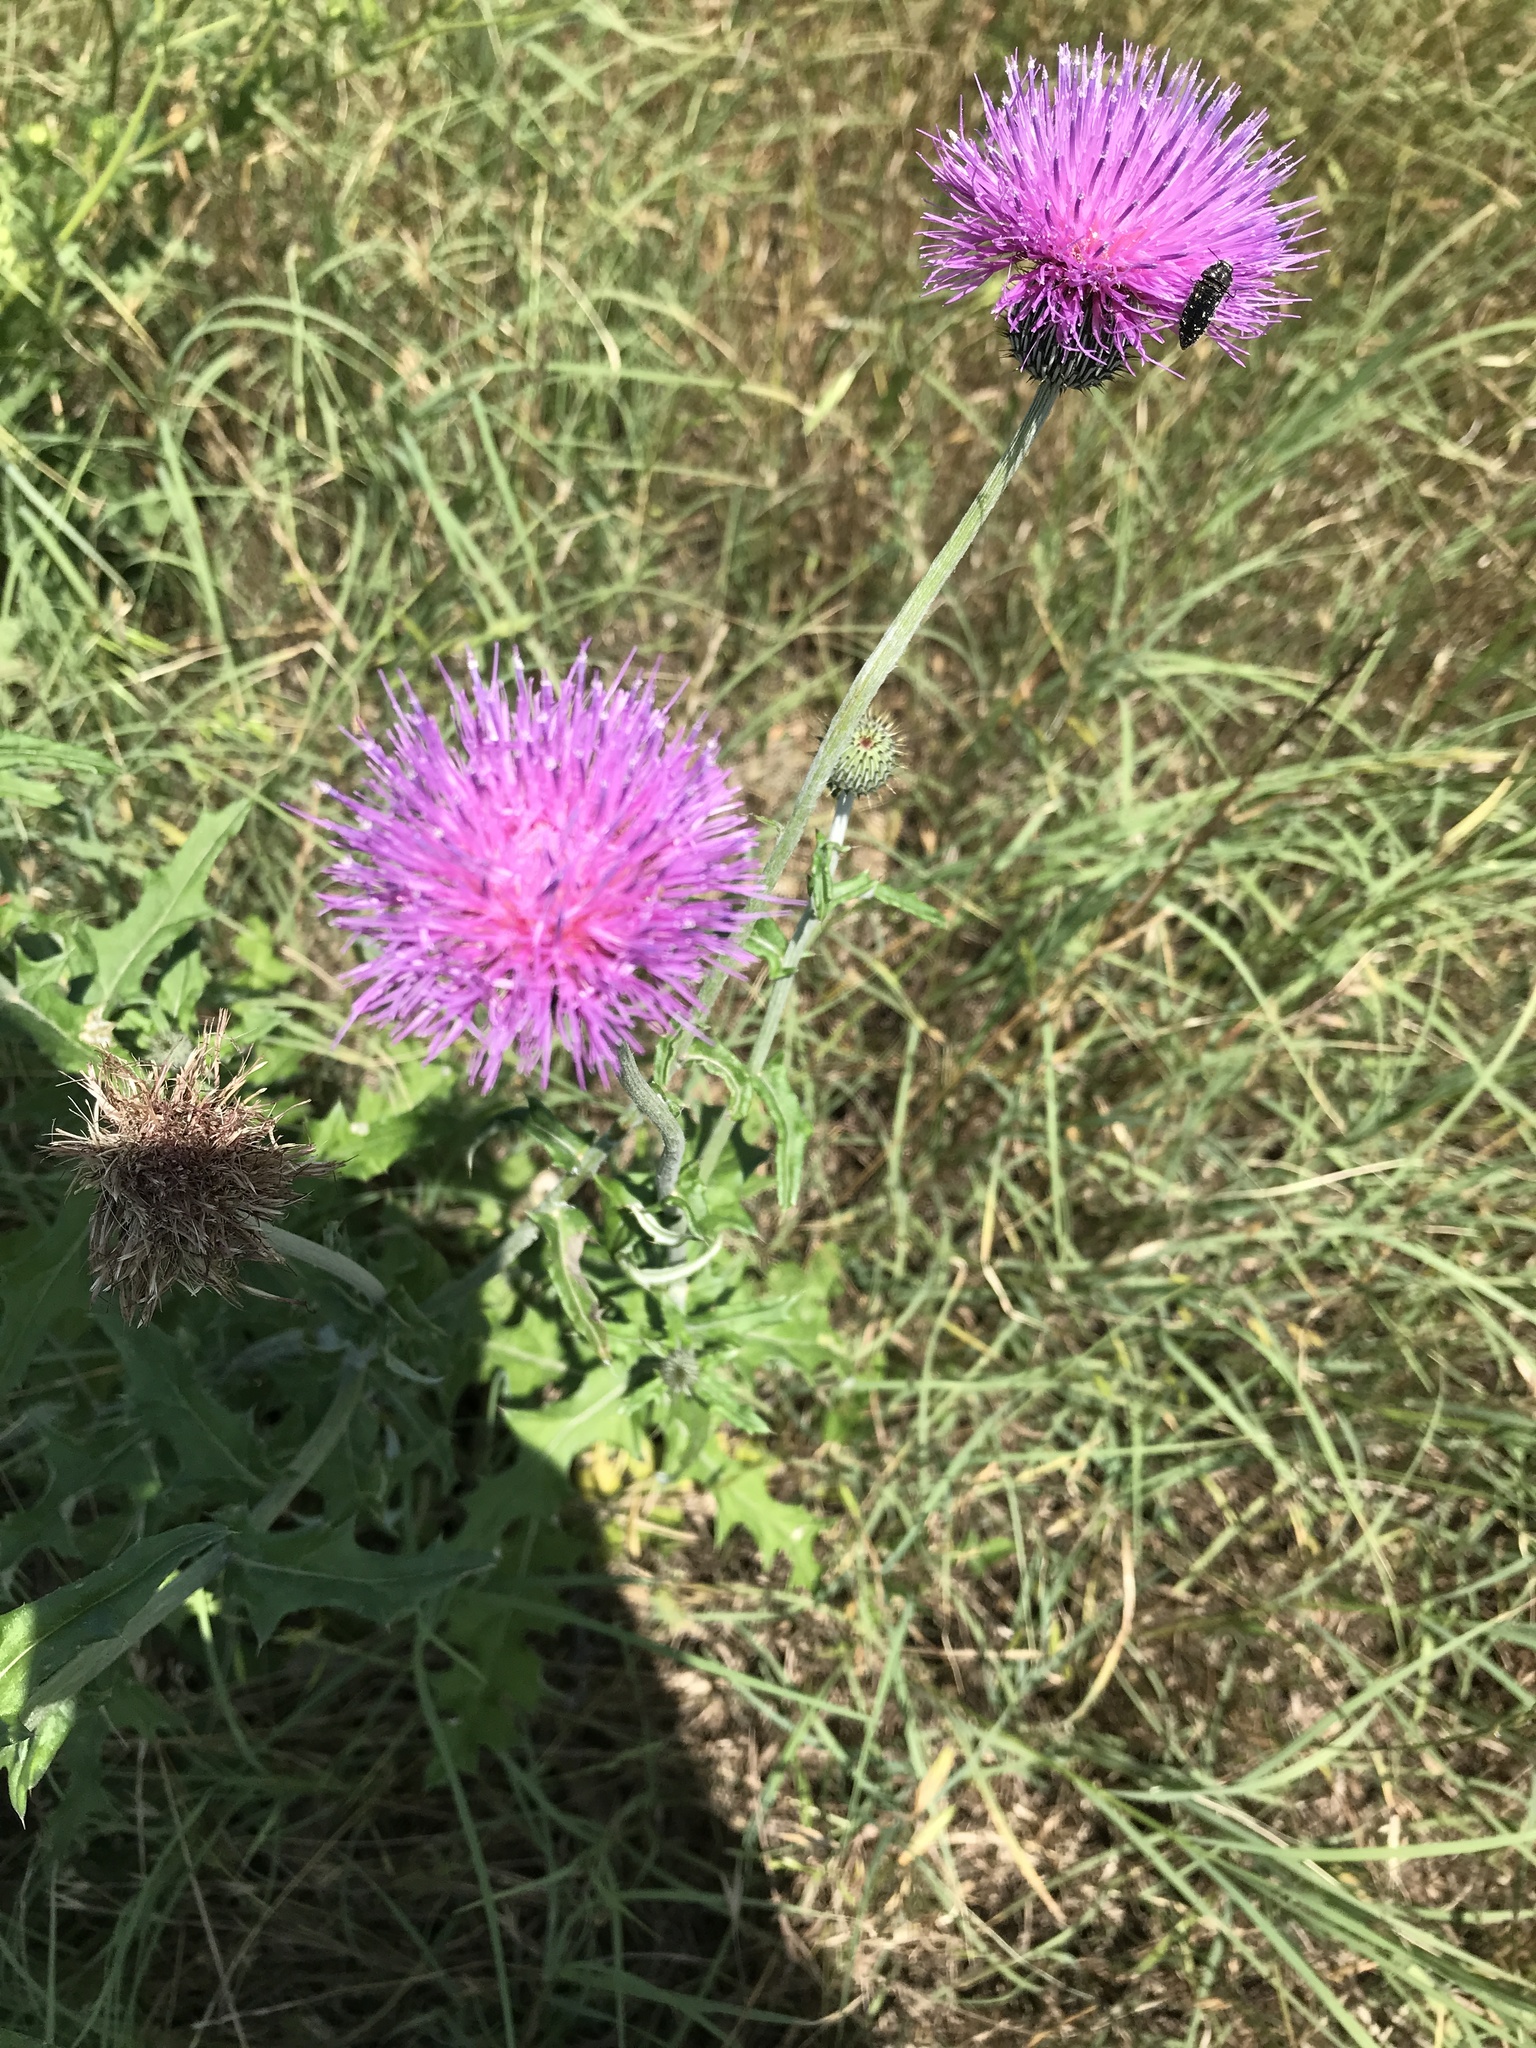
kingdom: Plantae
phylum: Tracheophyta
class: Magnoliopsida
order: Asterales
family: Asteraceae
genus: Cirsium
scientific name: Cirsium texanum
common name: Texas purple thistle
